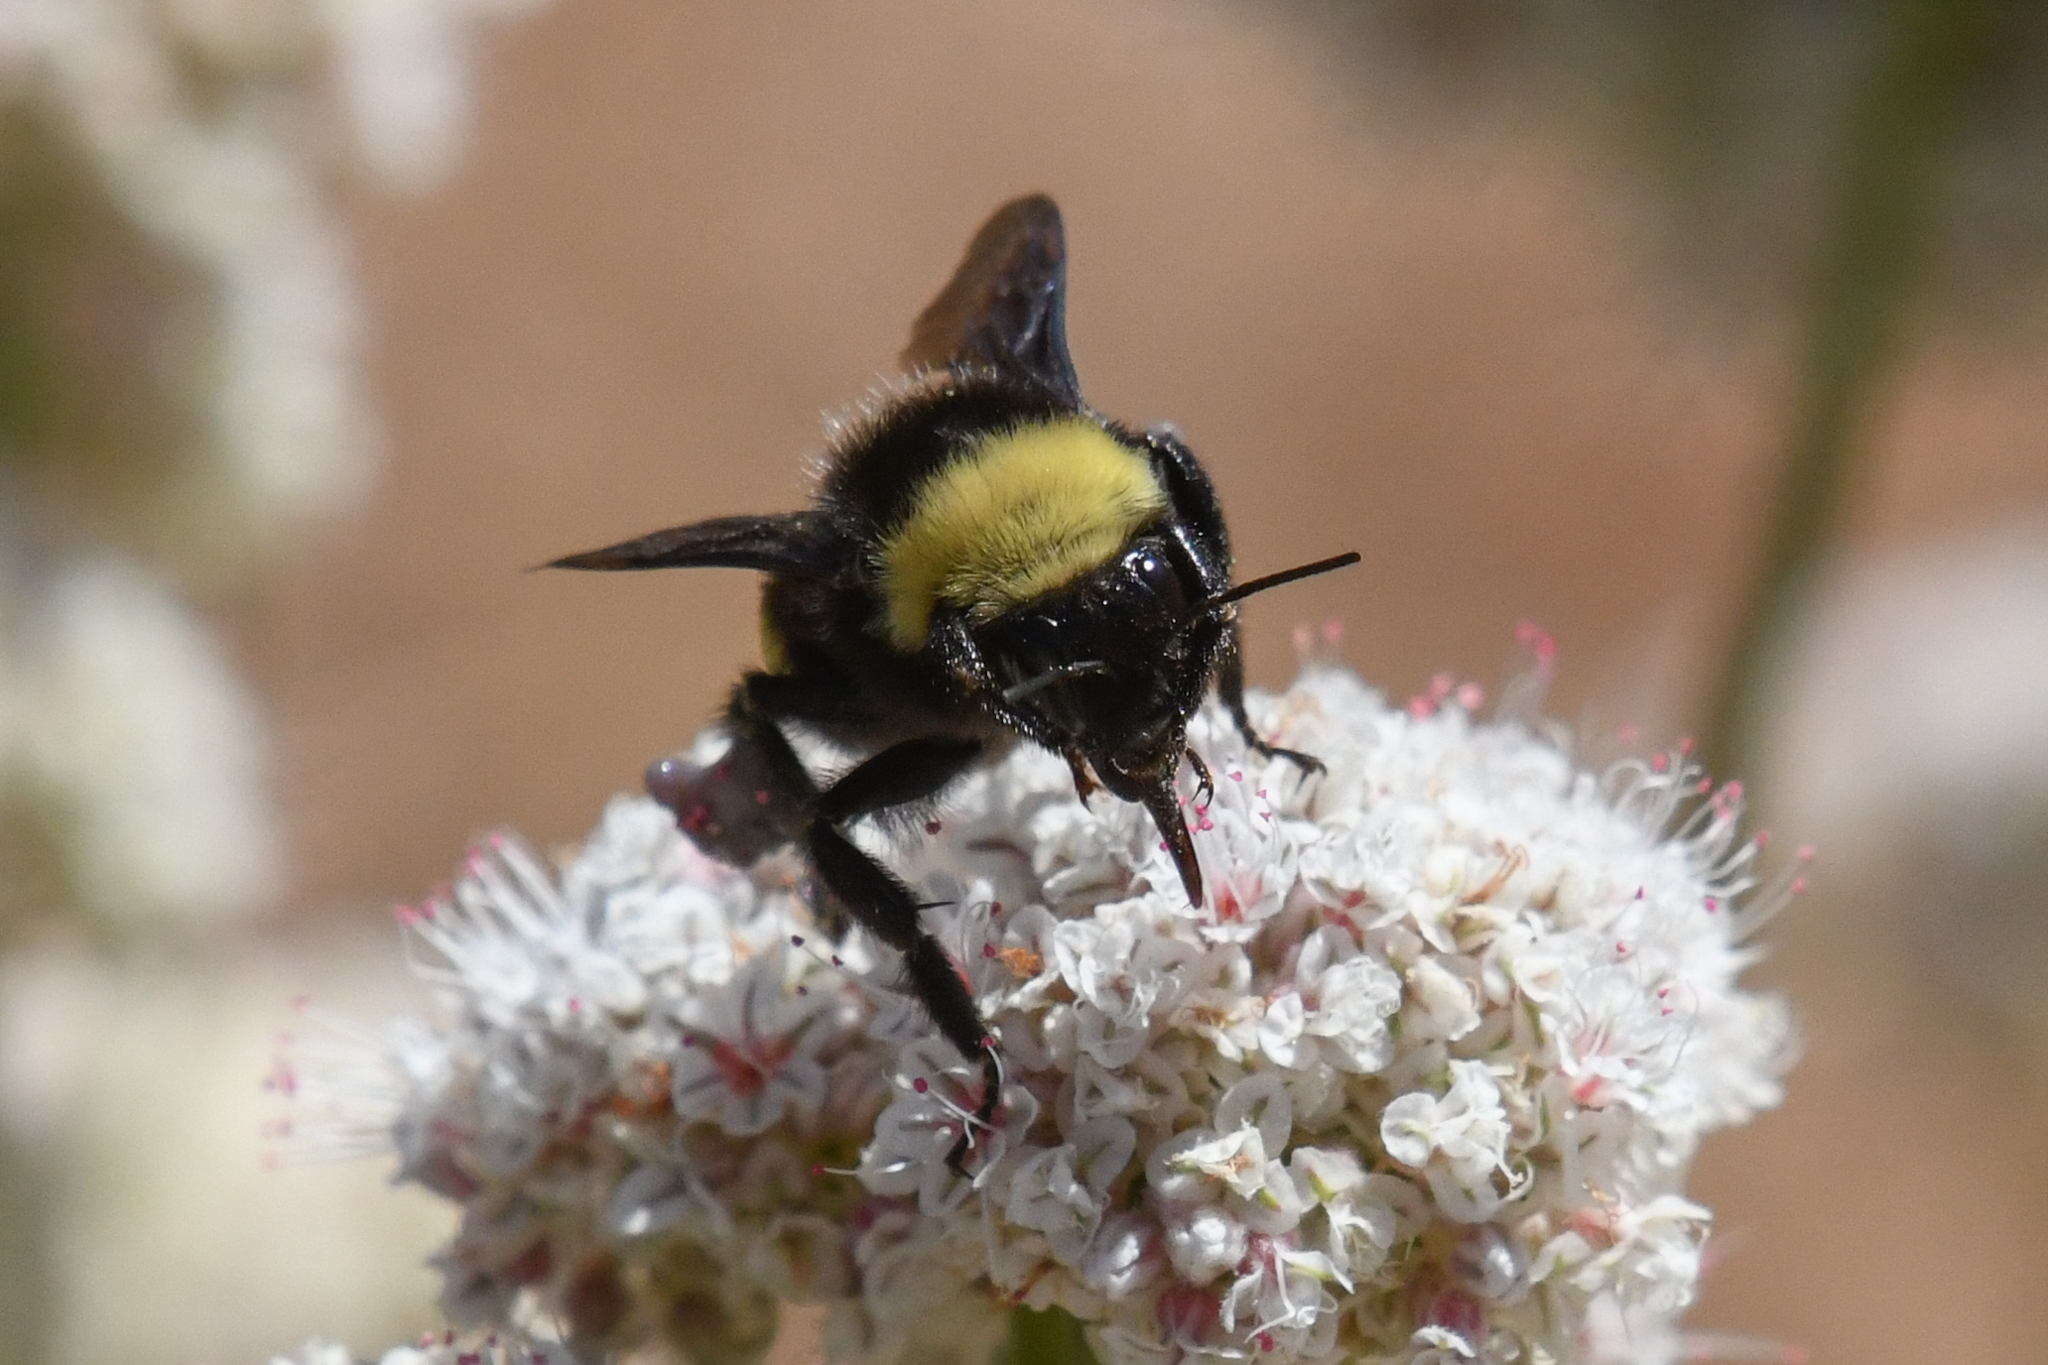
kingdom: Animalia
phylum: Arthropoda
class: Insecta
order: Hymenoptera
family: Apidae
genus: Bombus
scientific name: Bombus crotchii
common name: Crotch bumble bee
